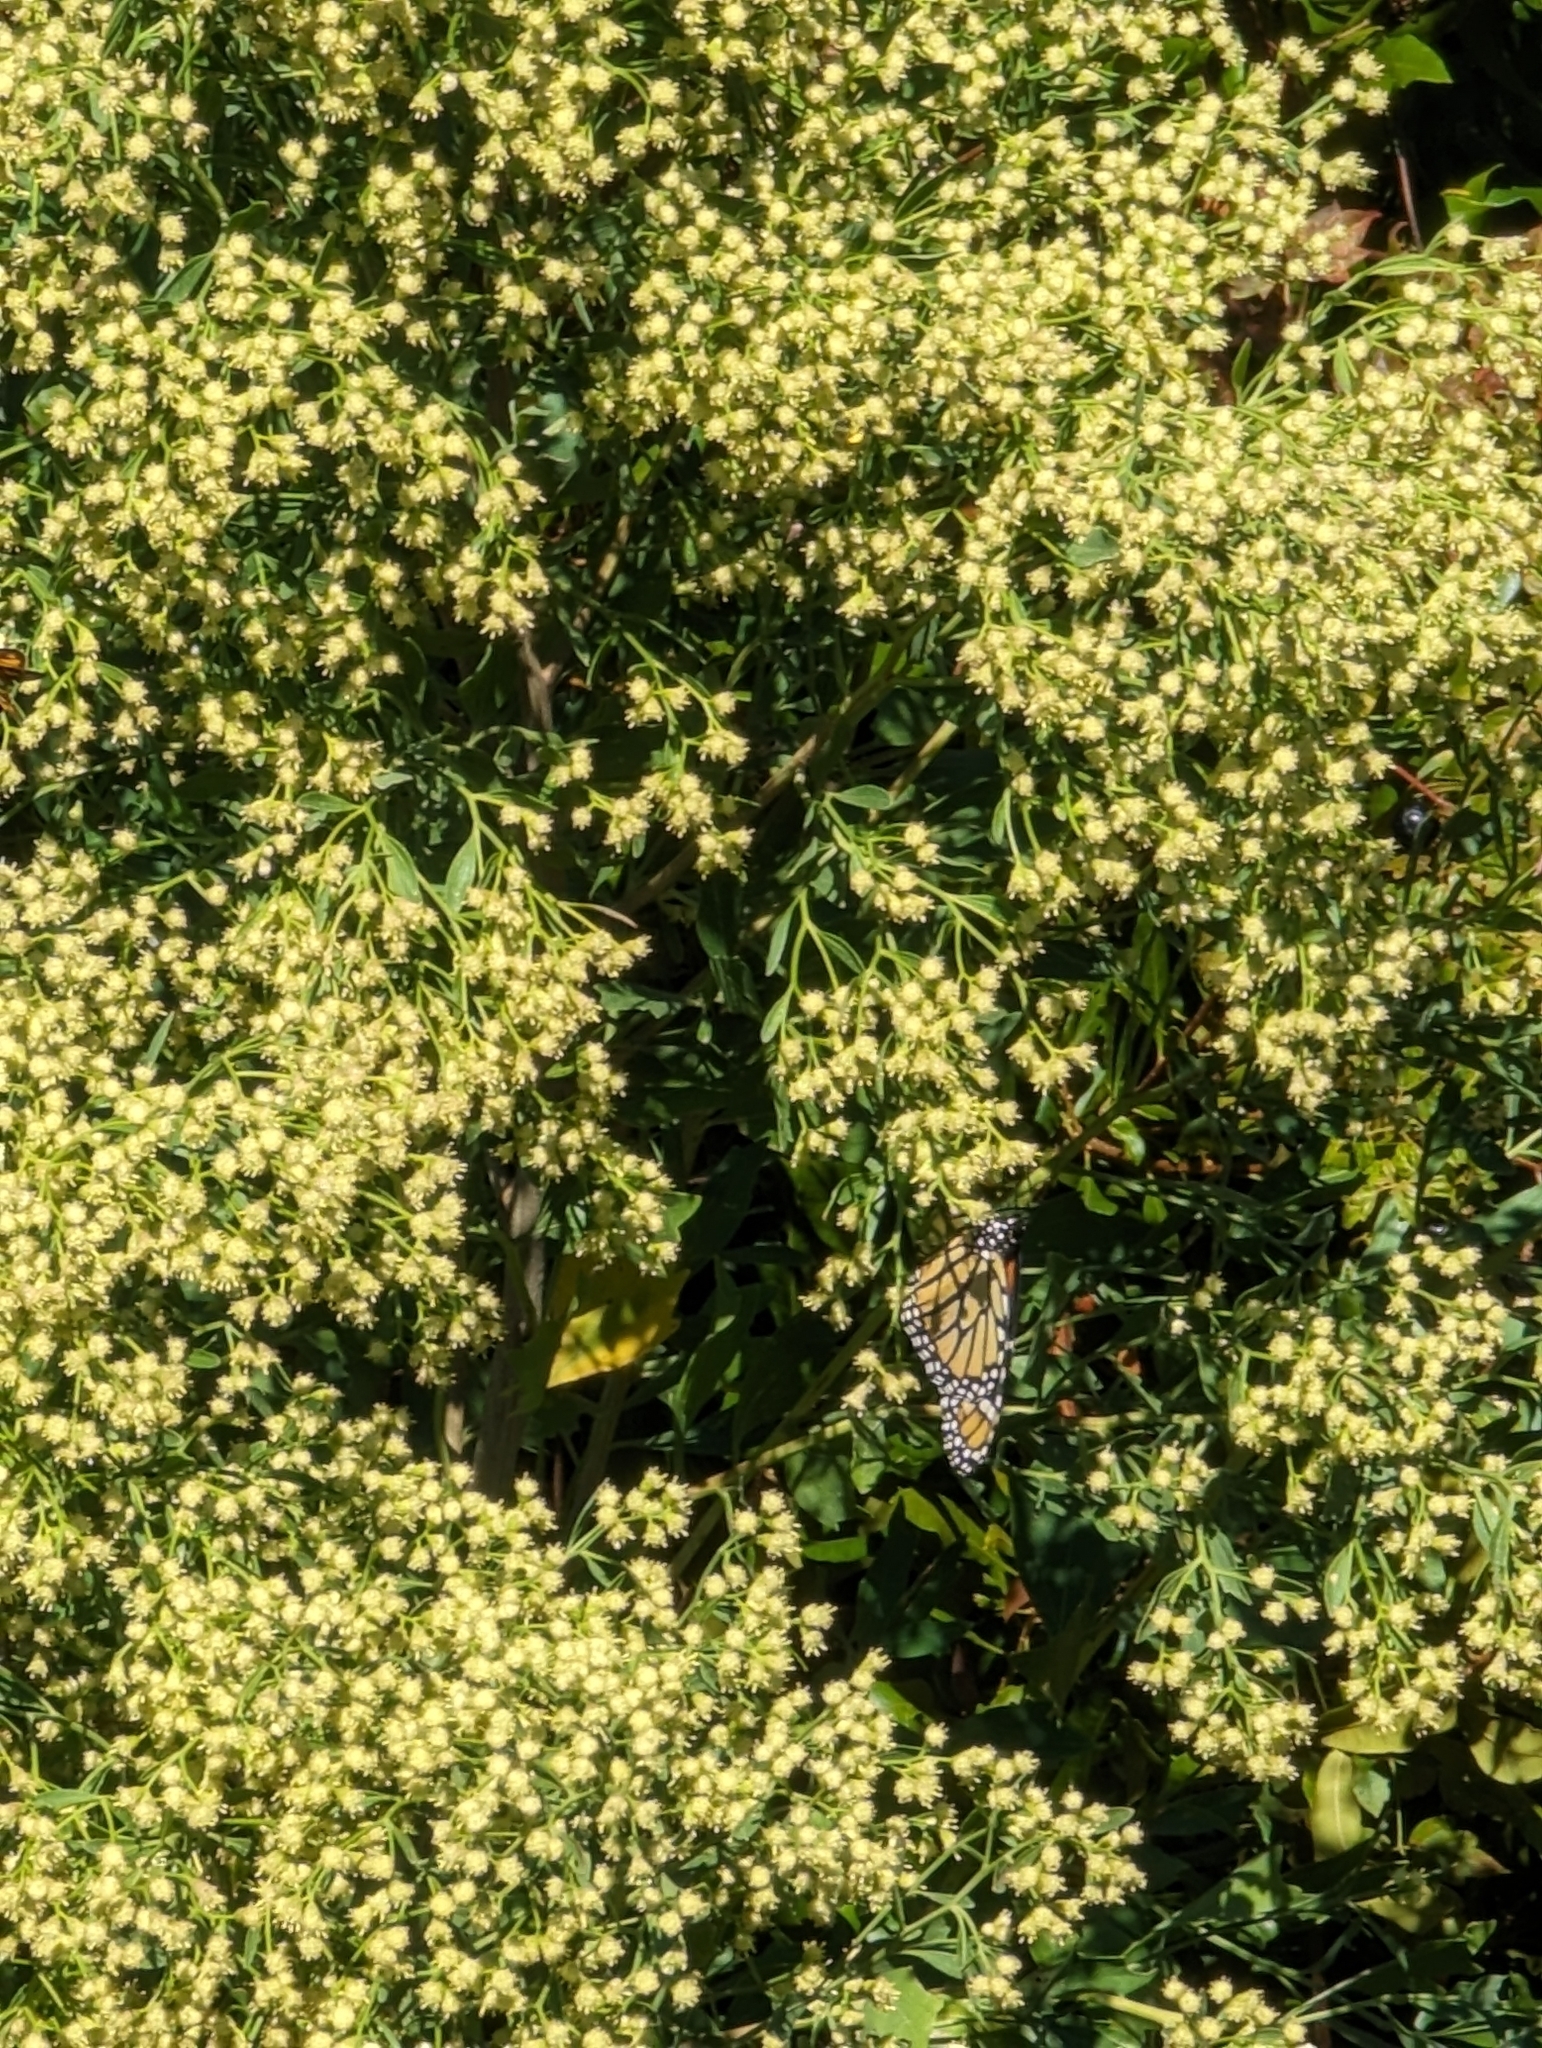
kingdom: Animalia
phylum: Arthropoda
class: Insecta
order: Lepidoptera
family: Nymphalidae
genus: Danaus
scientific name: Danaus plexippus
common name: Monarch
